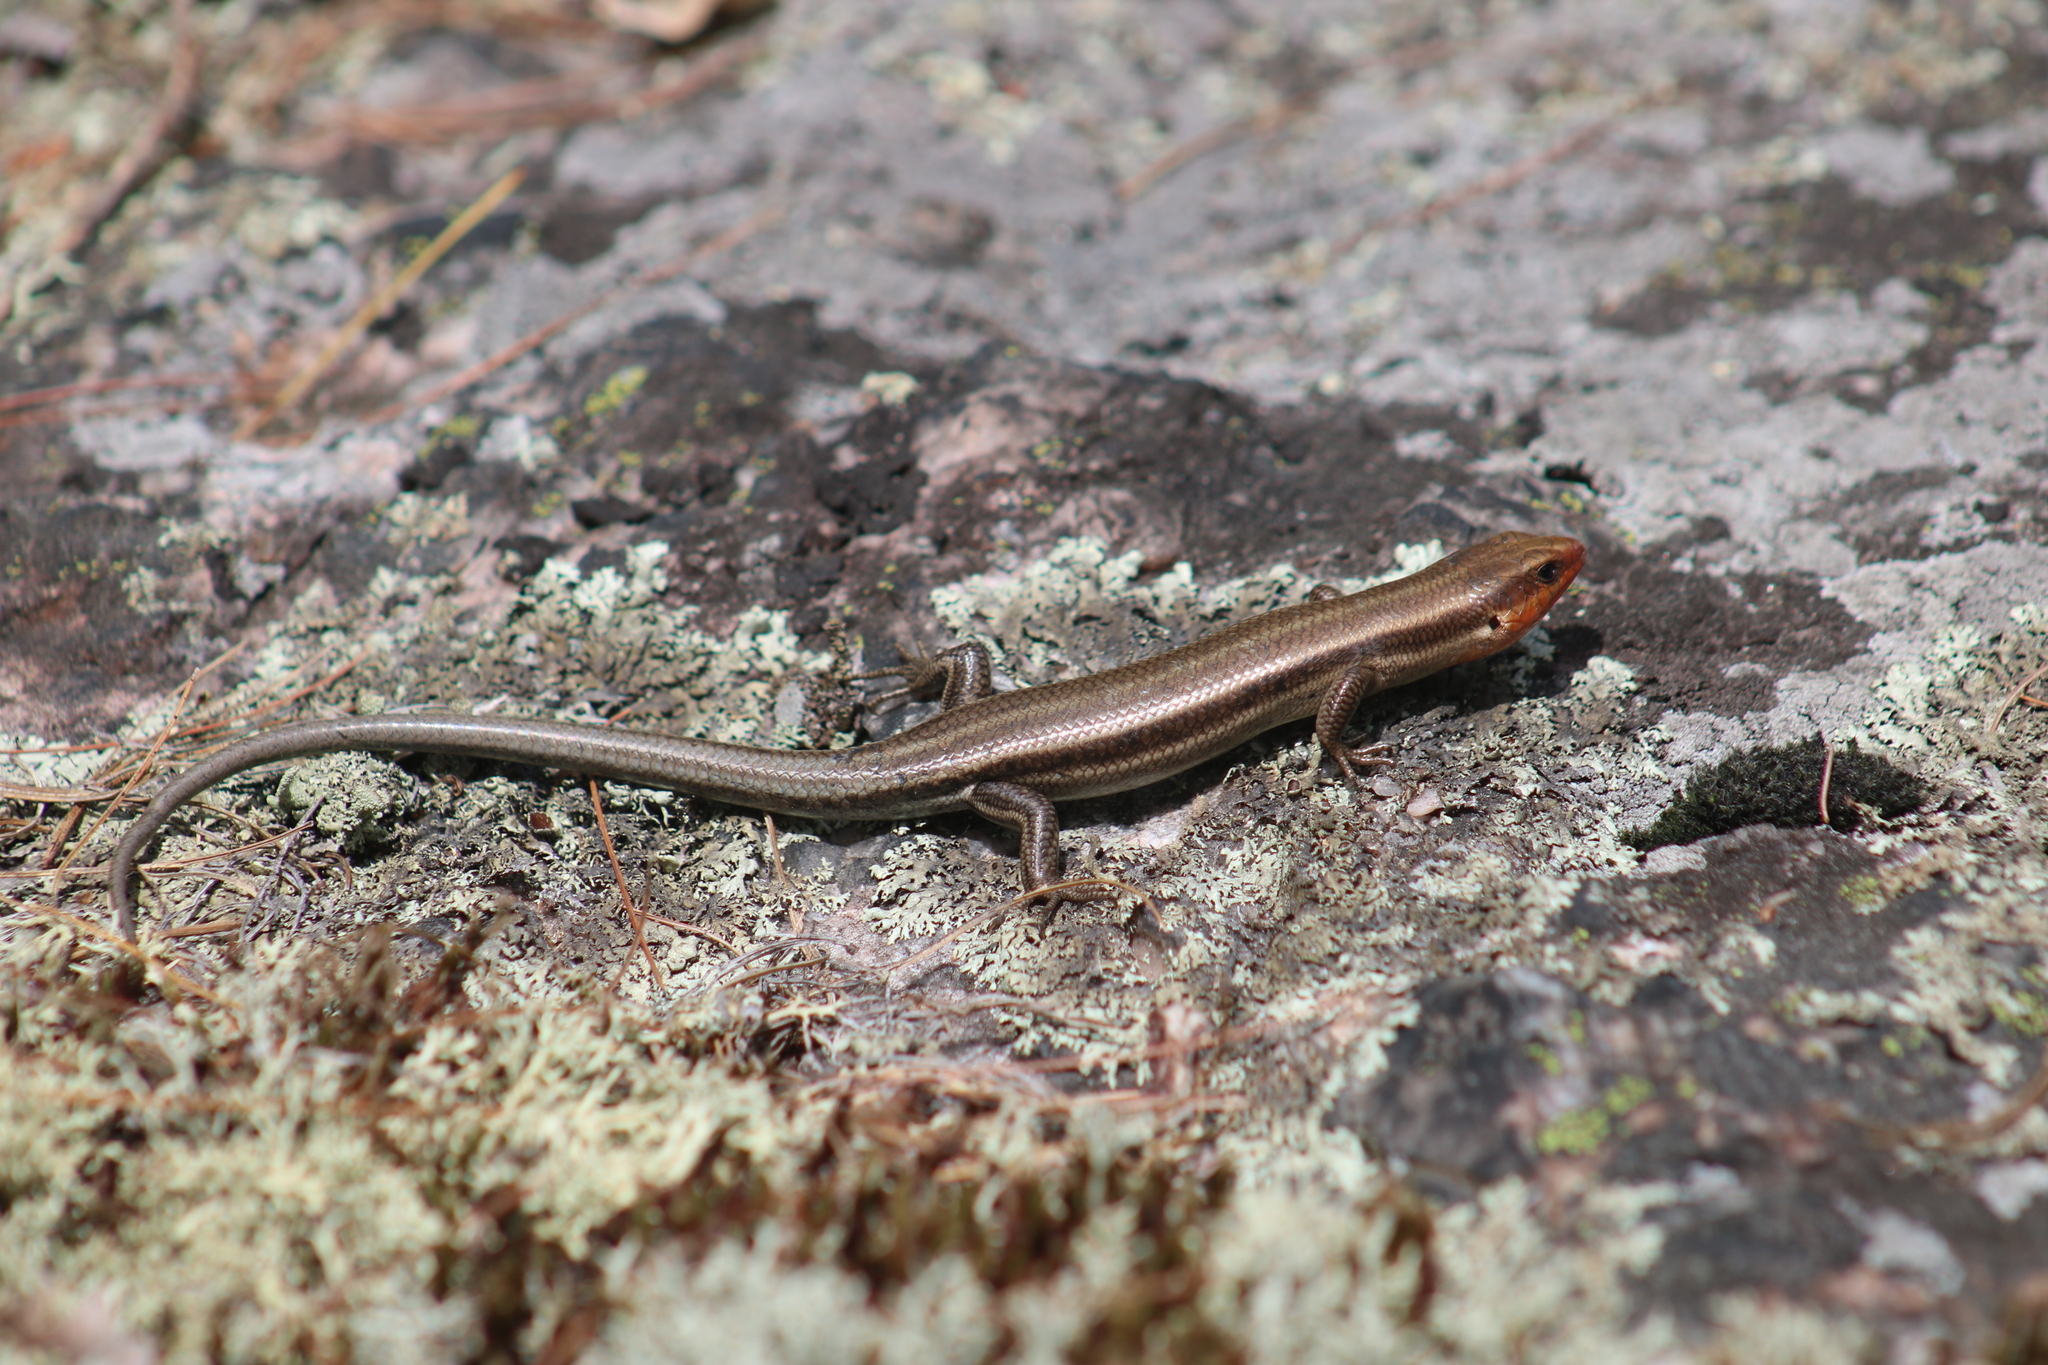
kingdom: Animalia
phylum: Chordata
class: Squamata
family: Scincidae
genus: Plestiodon
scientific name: Plestiodon fasciatus
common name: Five-lined skink
